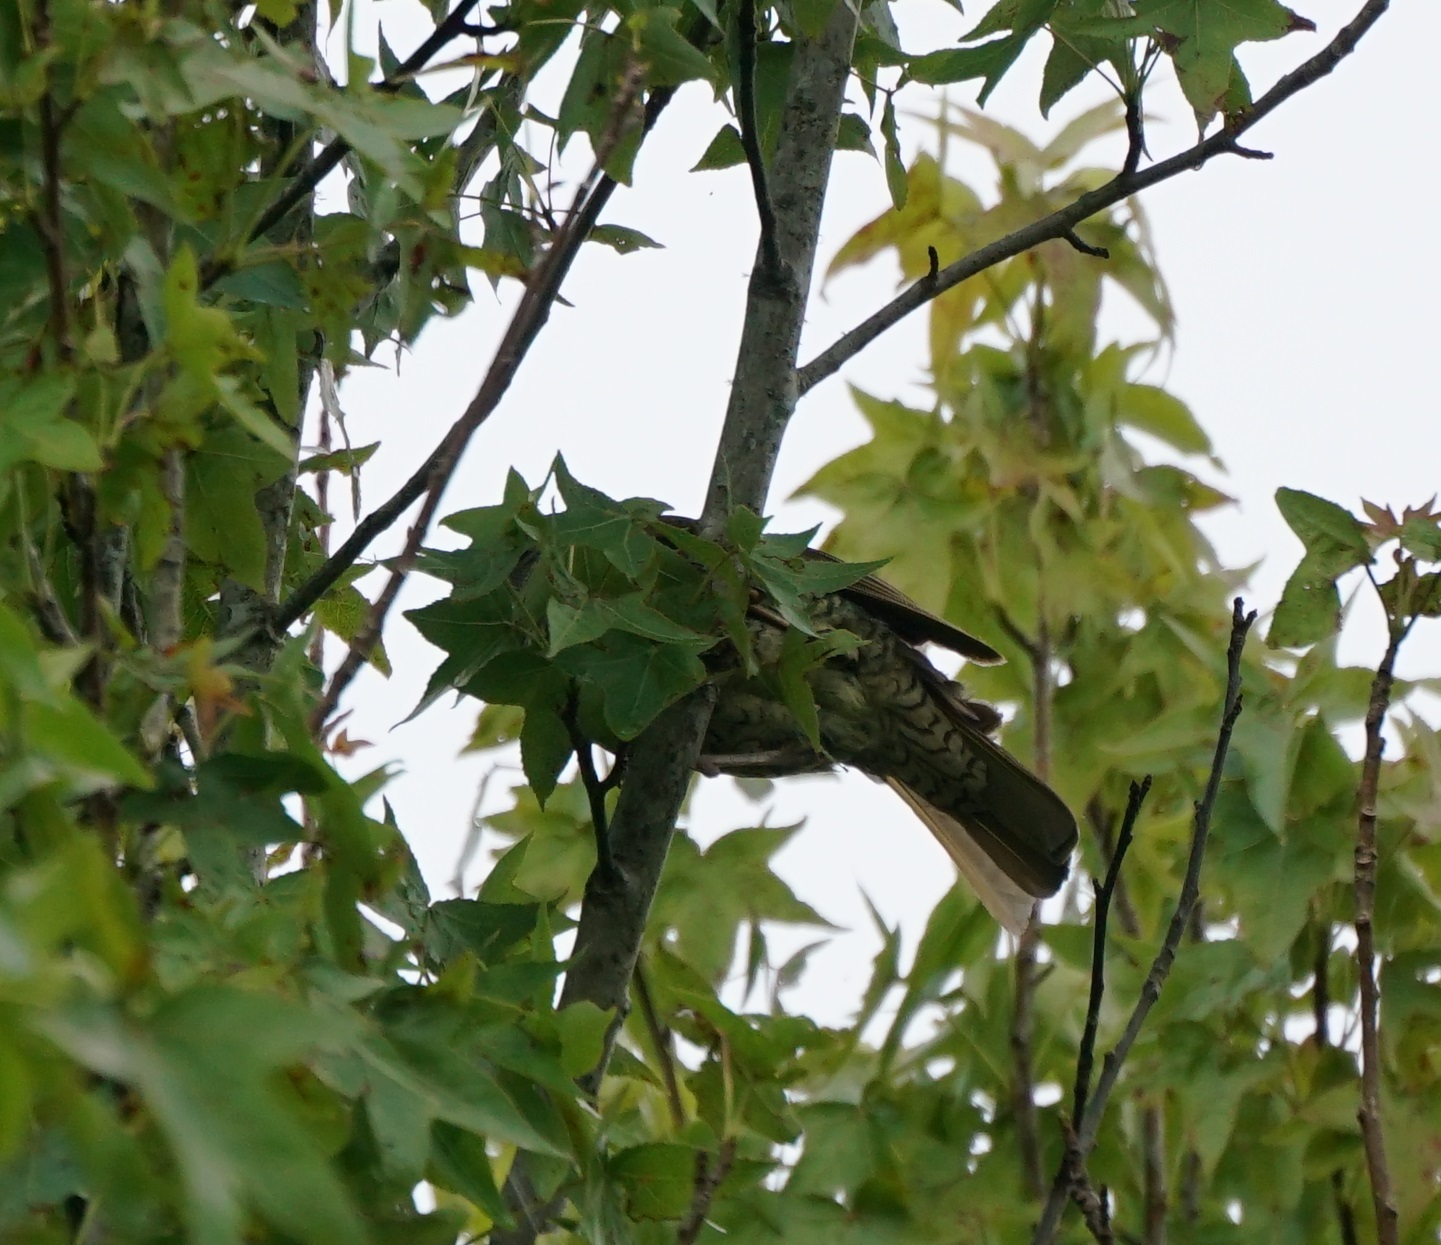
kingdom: Animalia
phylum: Chordata
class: Aves
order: Passeriformes
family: Ptilonorhynchidae
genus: Sericulus
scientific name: Sericulus chrysocephalus
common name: Regent bowerbird
